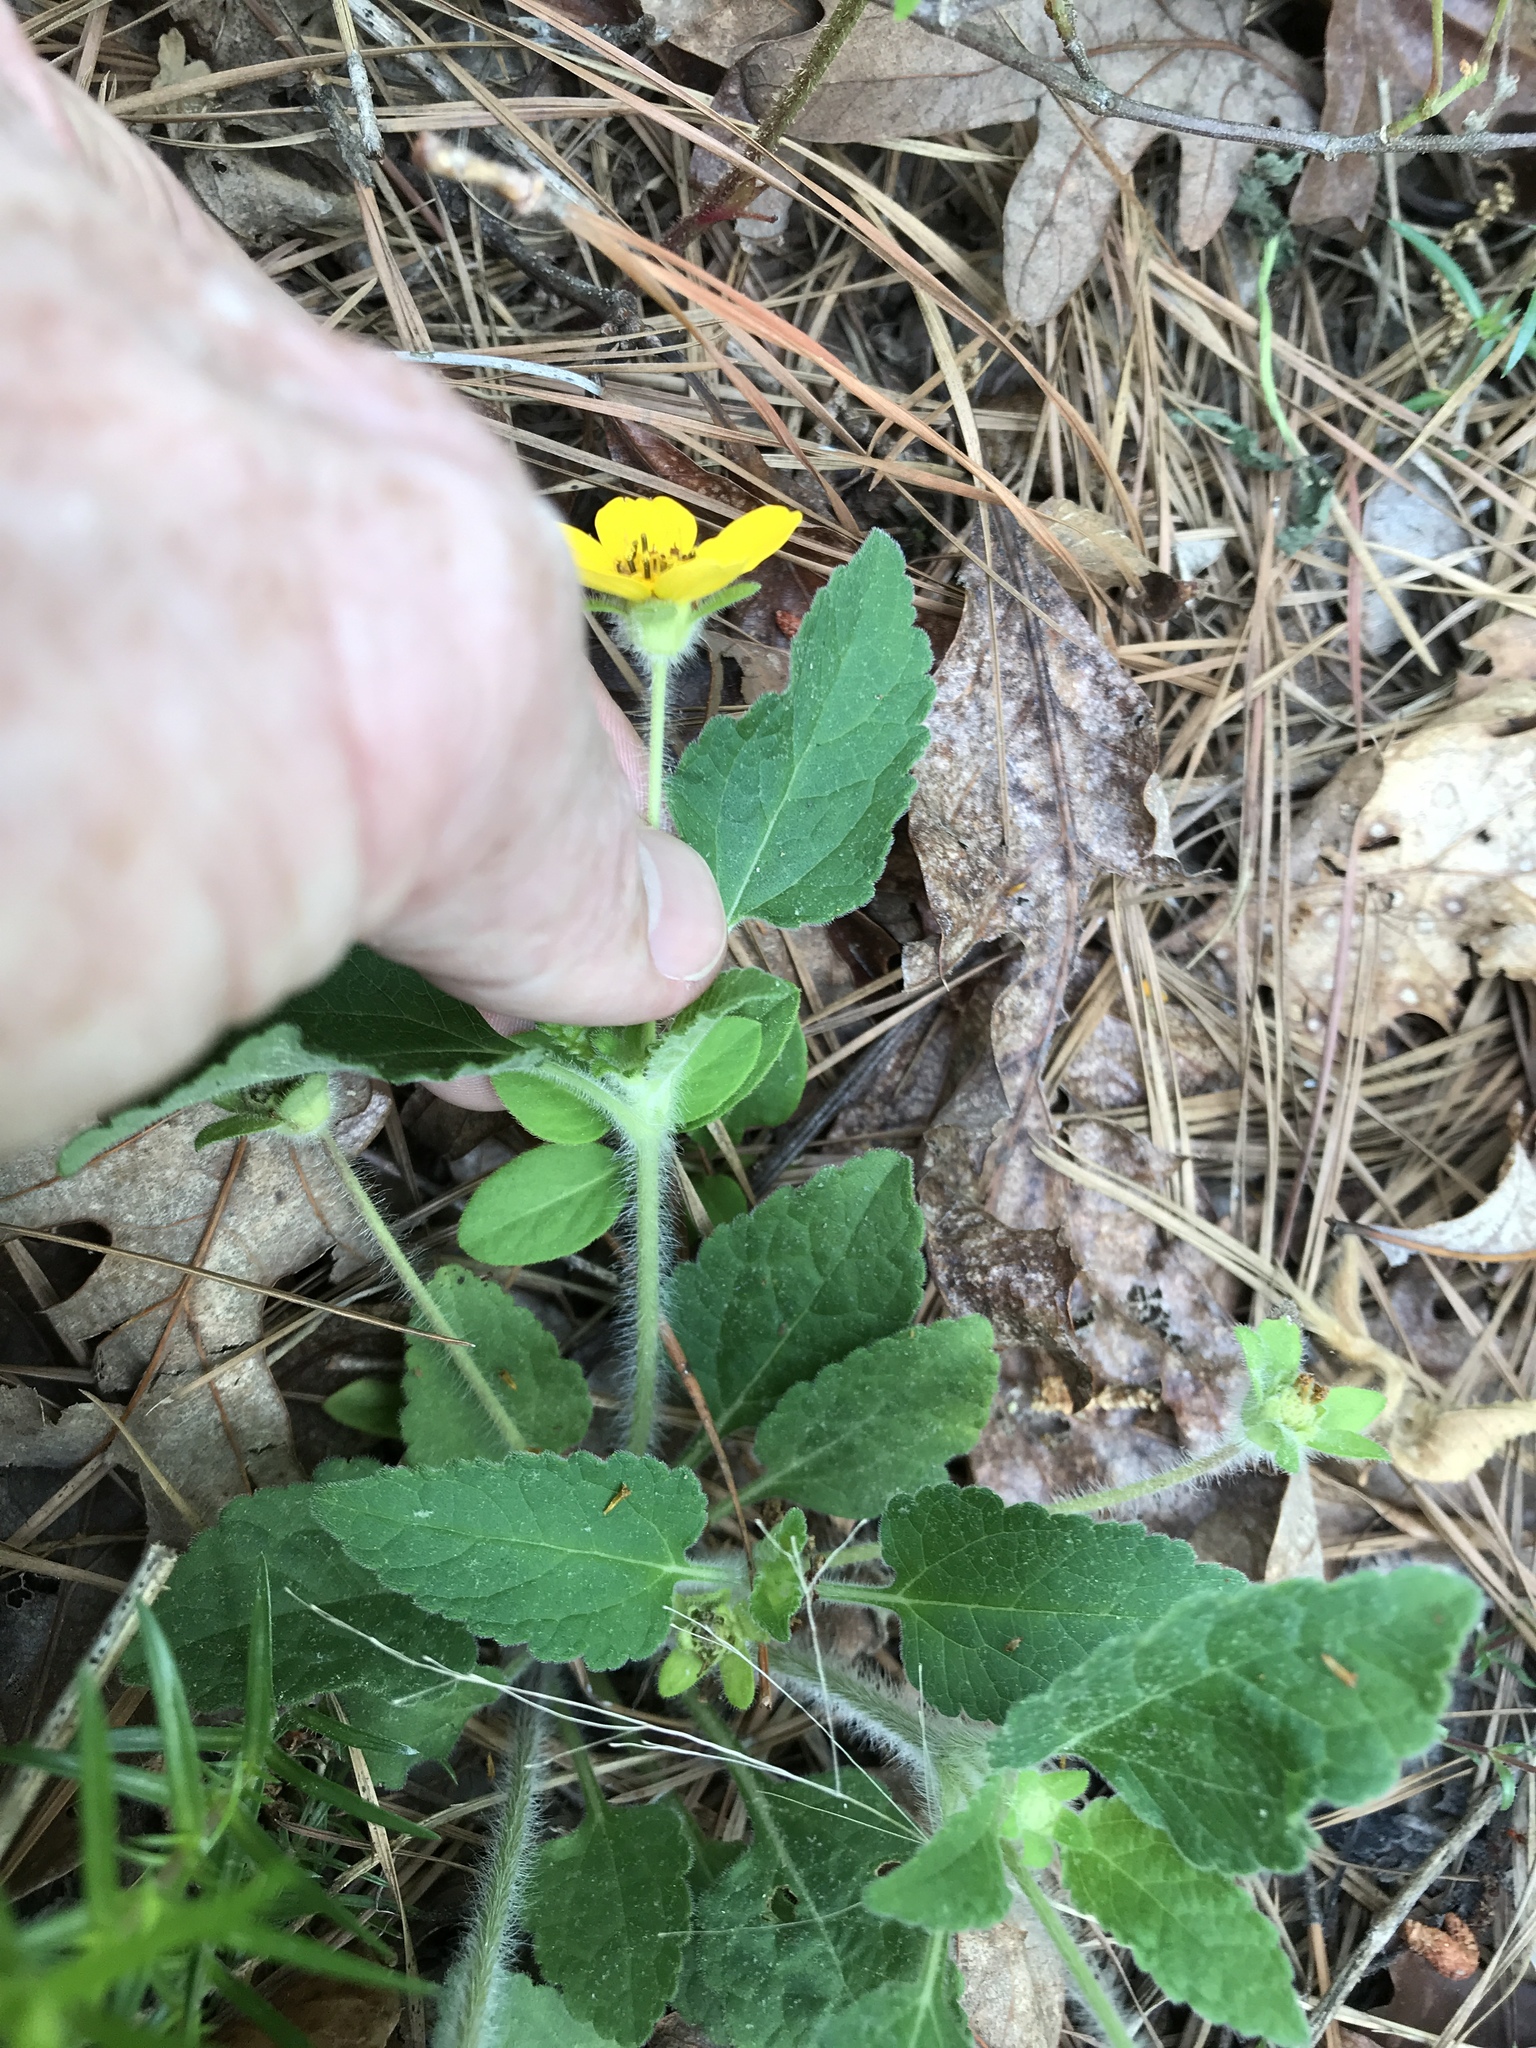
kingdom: Plantae
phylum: Tracheophyta
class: Magnoliopsida
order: Asterales
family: Asteraceae
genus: Chrysogonum
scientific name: Chrysogonum virginianum
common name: Golden-knee
